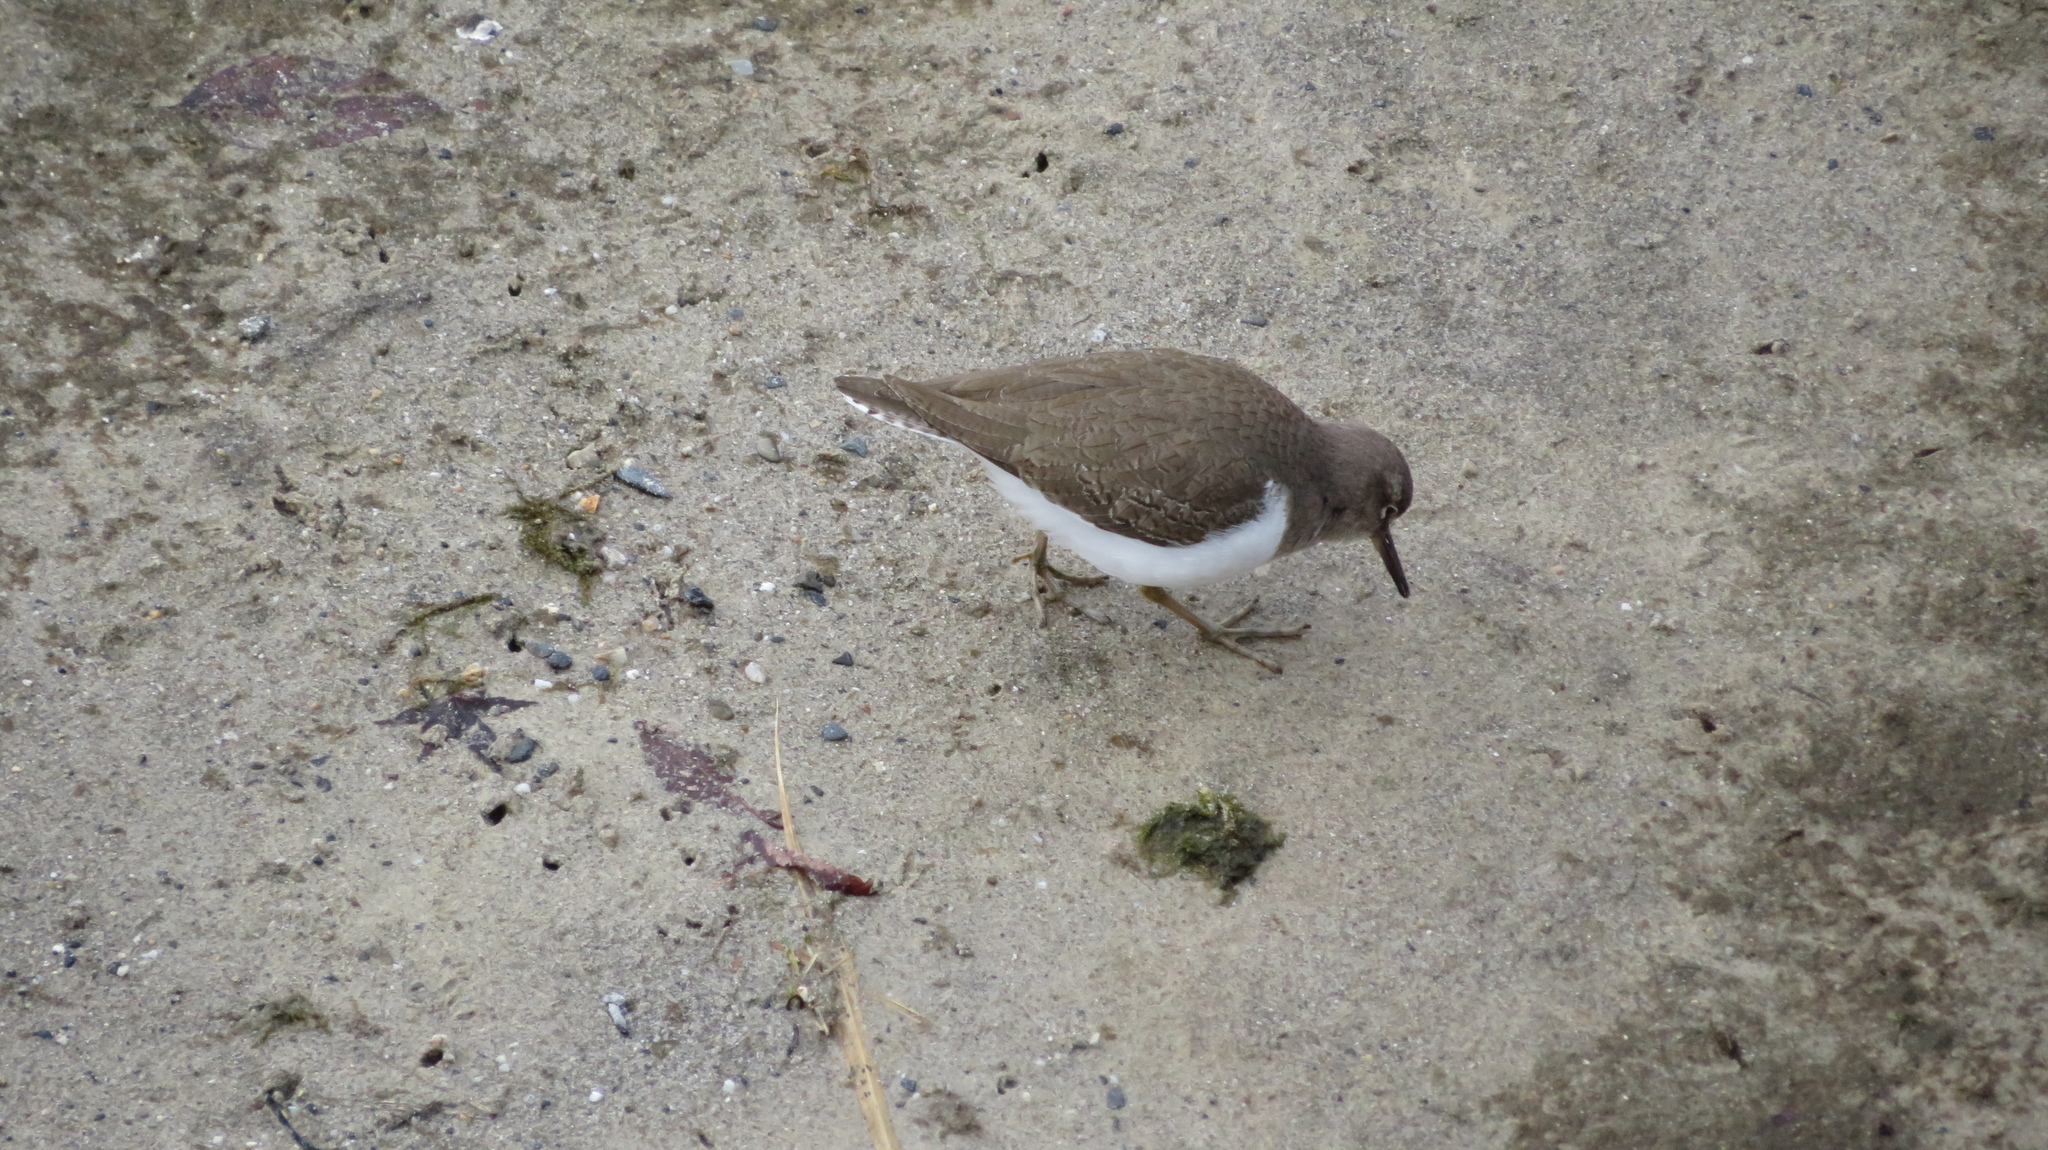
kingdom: Animalia
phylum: Chordata
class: Aves
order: Charadriiformes
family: Scolopacidae
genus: Actitis
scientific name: Actitis hypoleucos
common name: Common sandpiper
